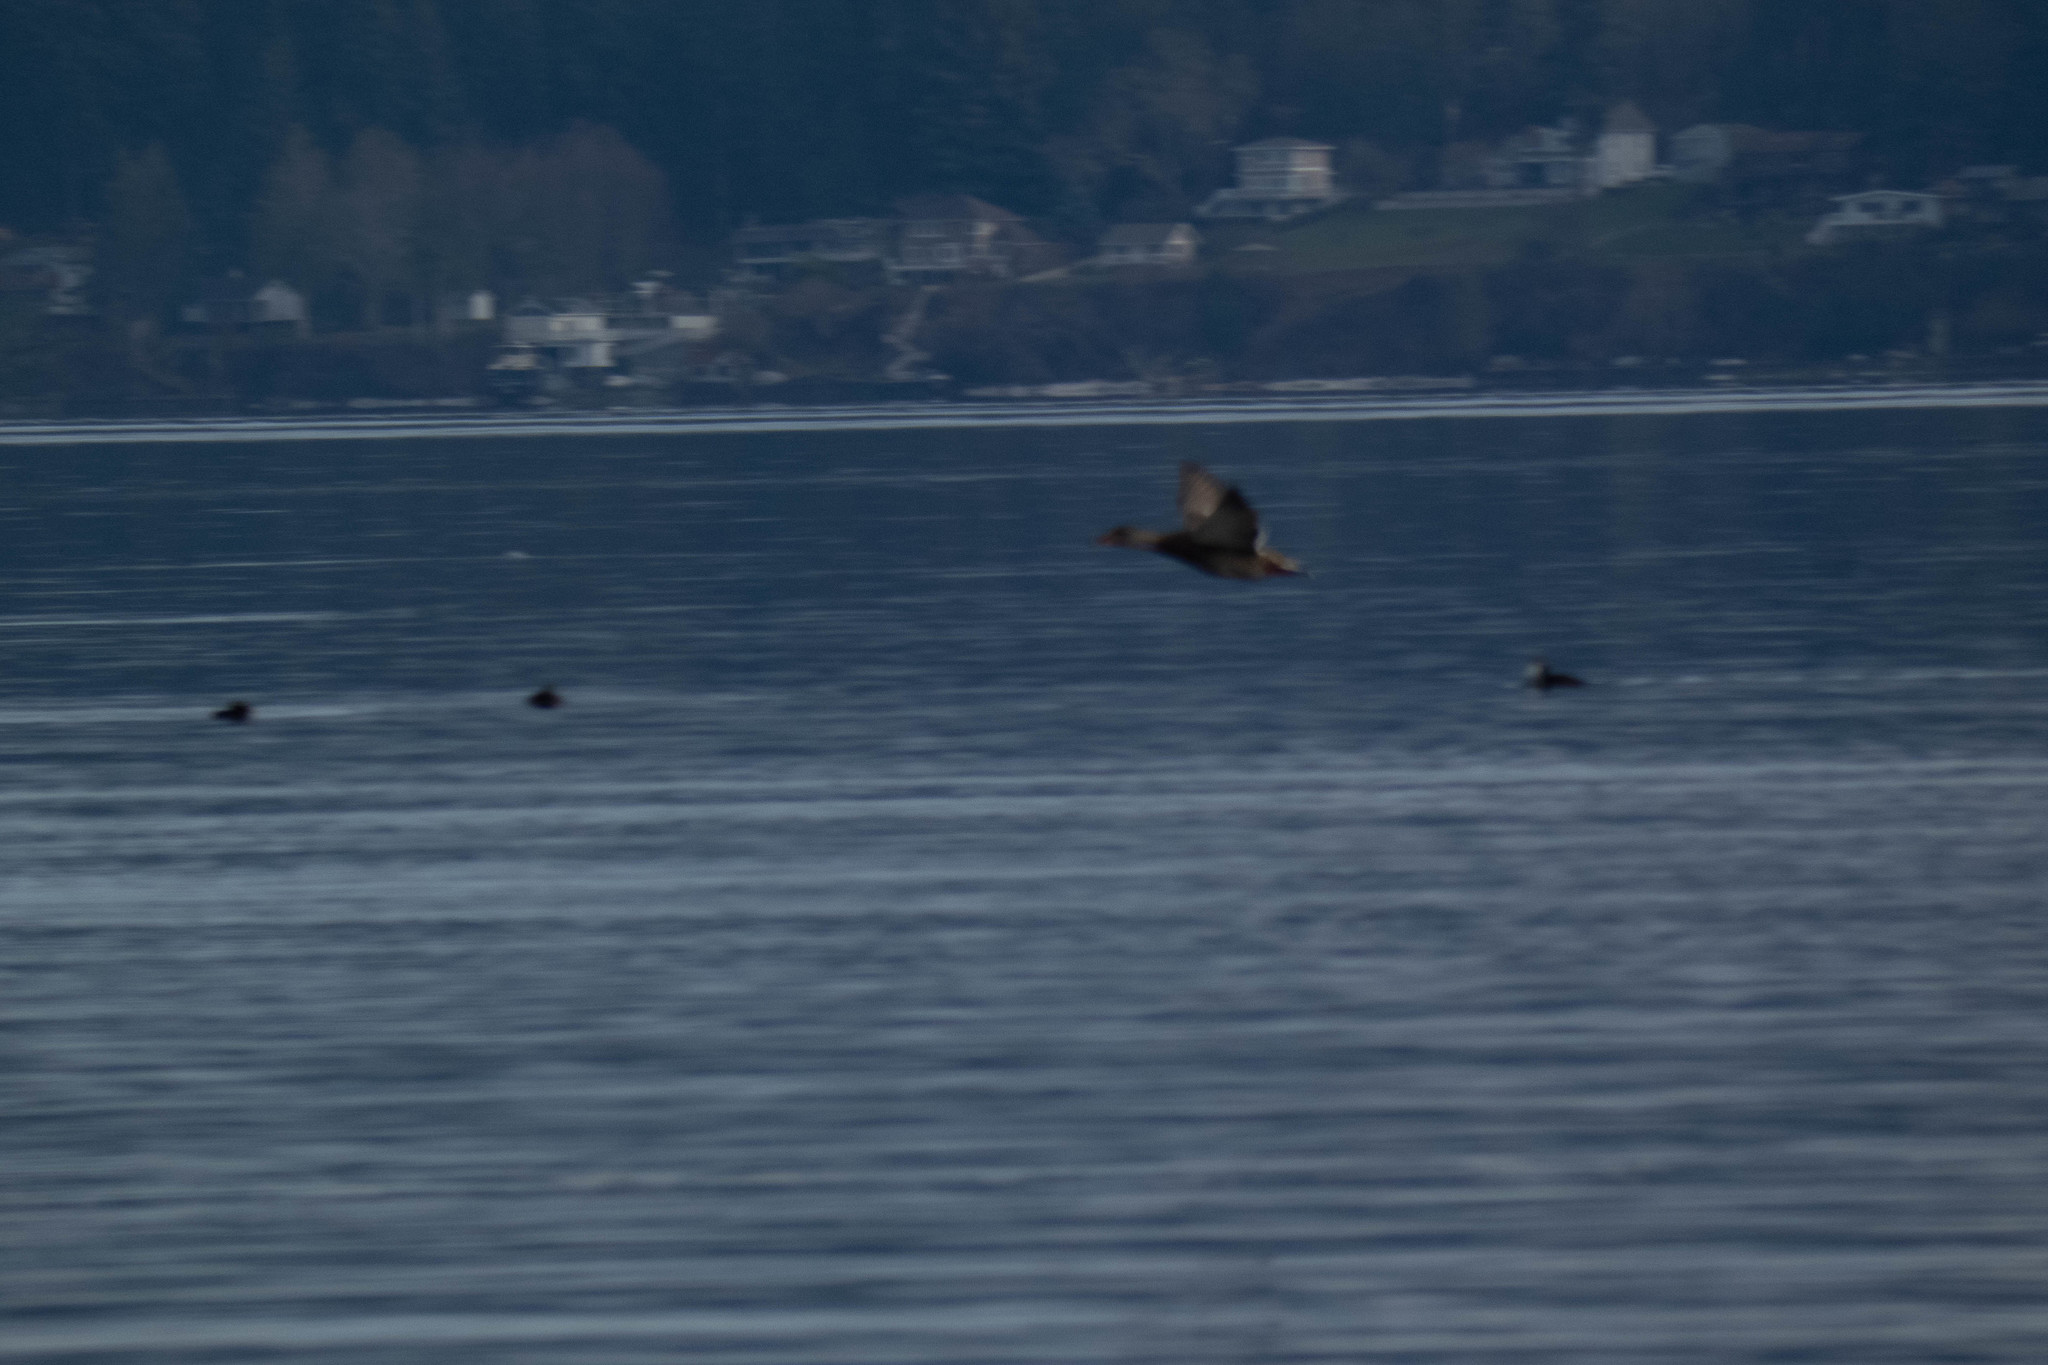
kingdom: Animalia
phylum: Chordata
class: Aves
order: Anseriformes
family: Anatidae
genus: Anas
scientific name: Anas platyrhynchos
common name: Mallard
